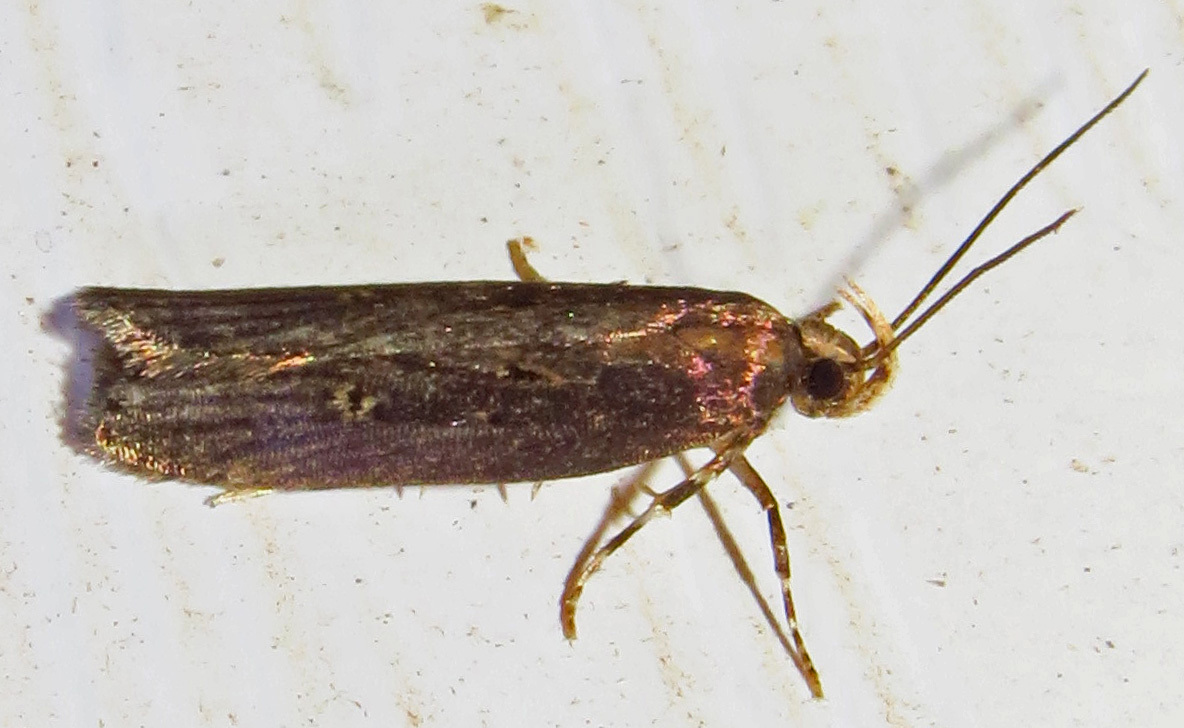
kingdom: Animalia
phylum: Arthropoda
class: Insecta
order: Lepidoptera
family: Gelechiidae
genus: Chionodes
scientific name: Chionodes discoocellella
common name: Eye-ringed chionodes moth
